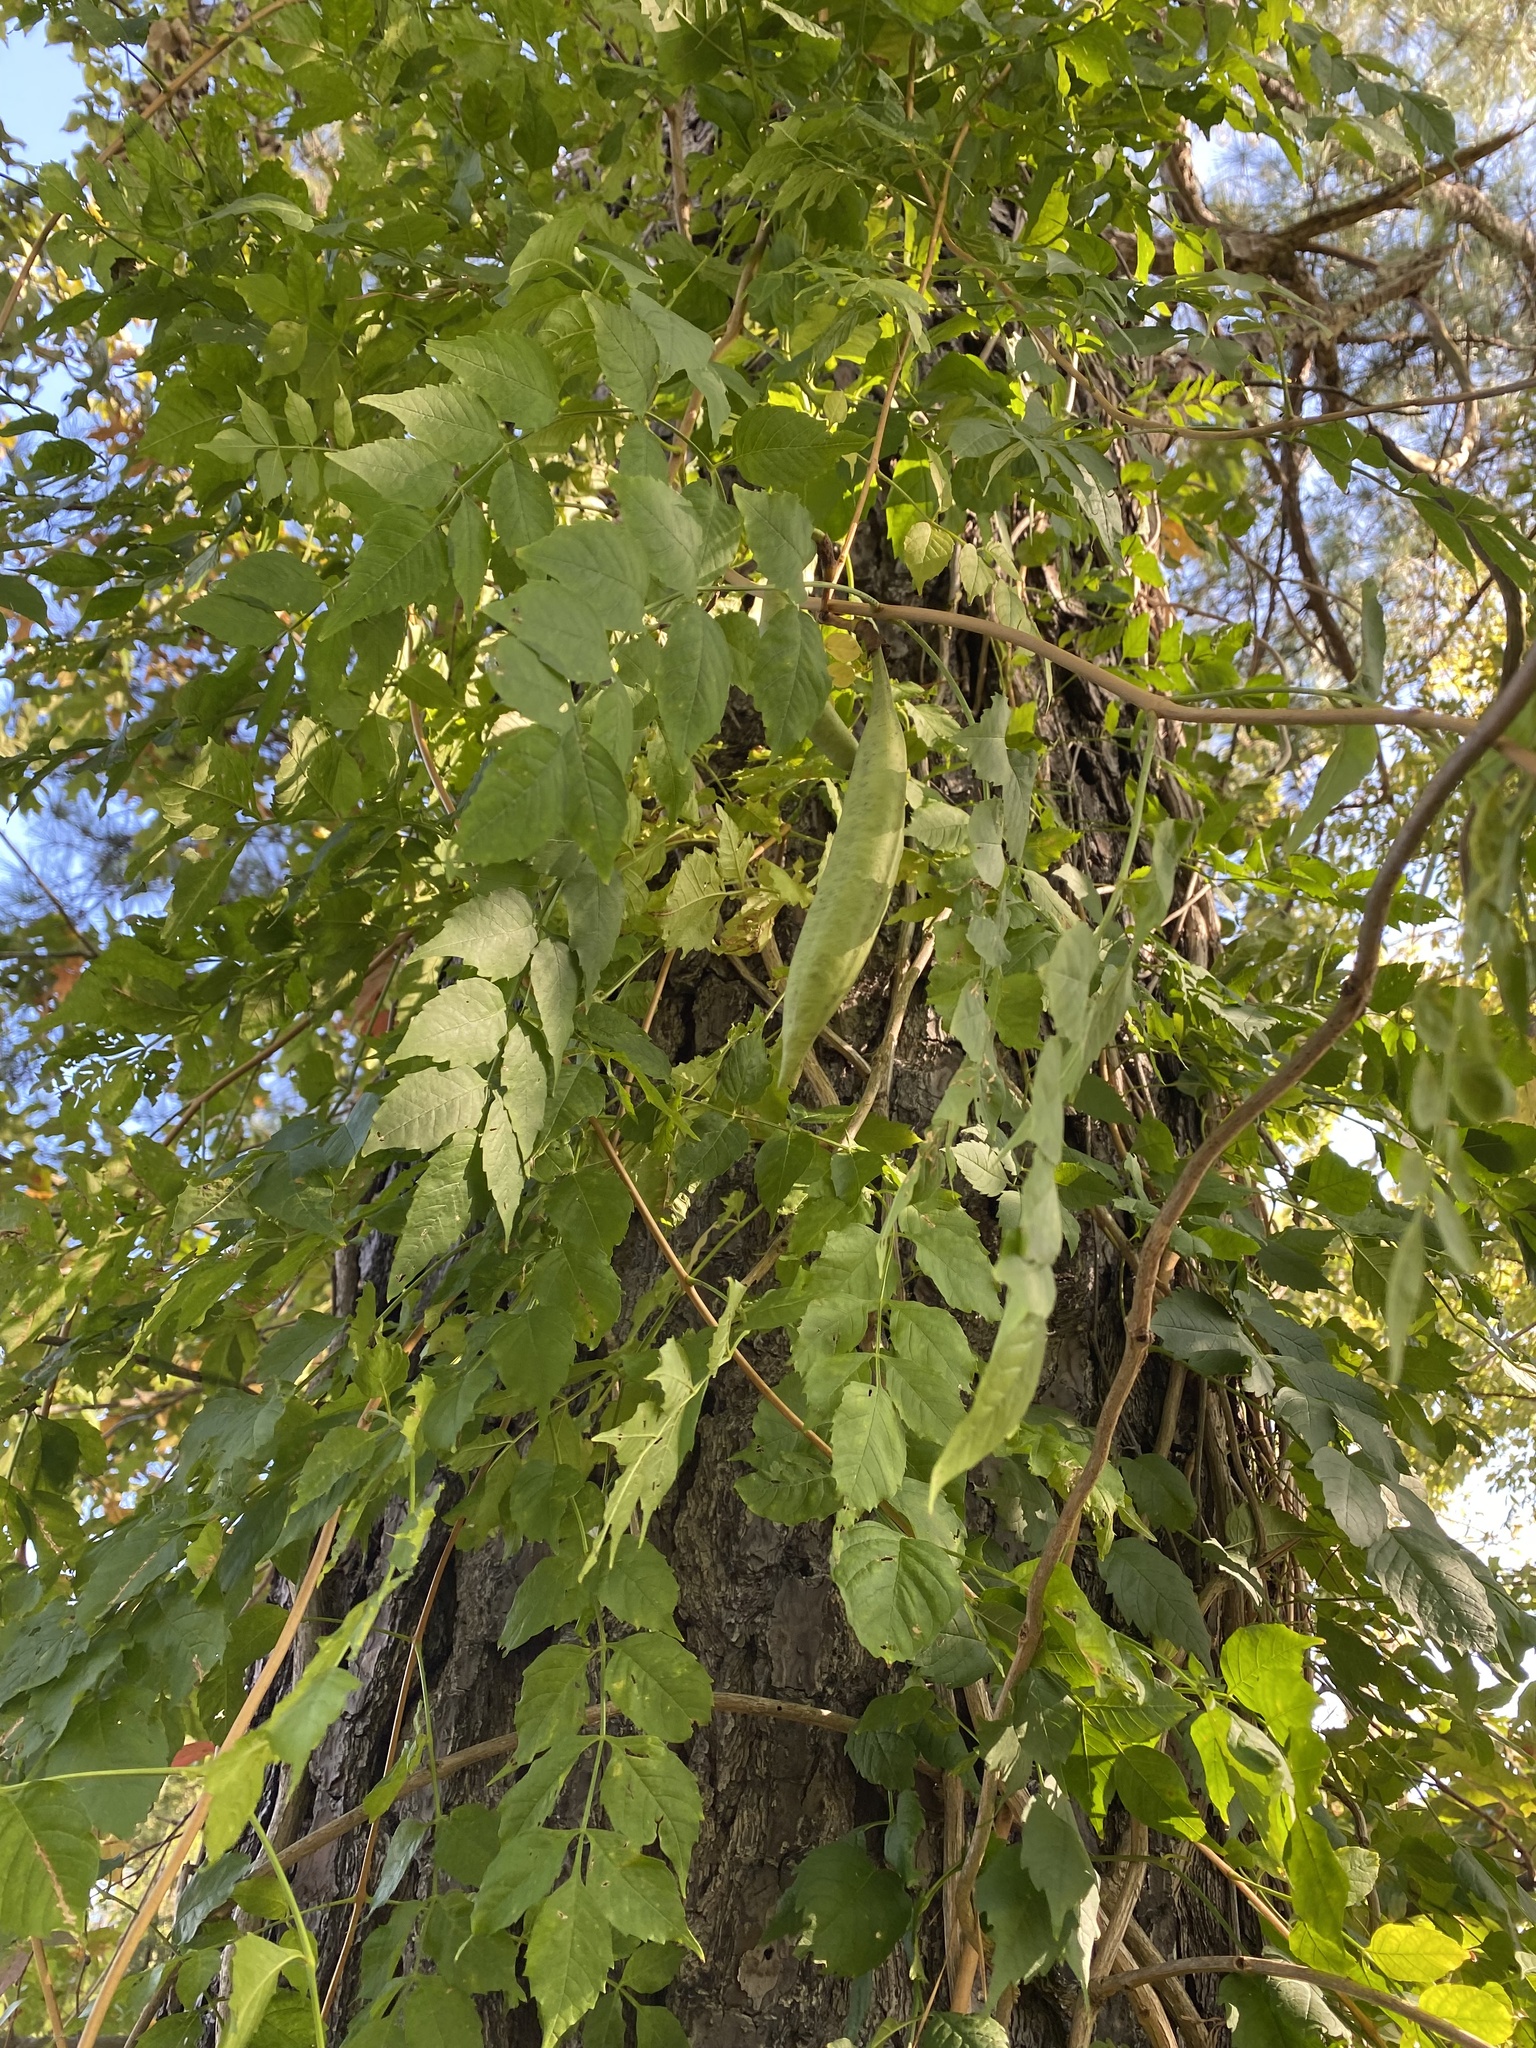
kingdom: Plantae
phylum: Tracheophyta
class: Magnoliopsida
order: Lamiales
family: Bignoniaceae
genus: Campsis
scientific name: Campsis radicans
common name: Trumpet-creeper
